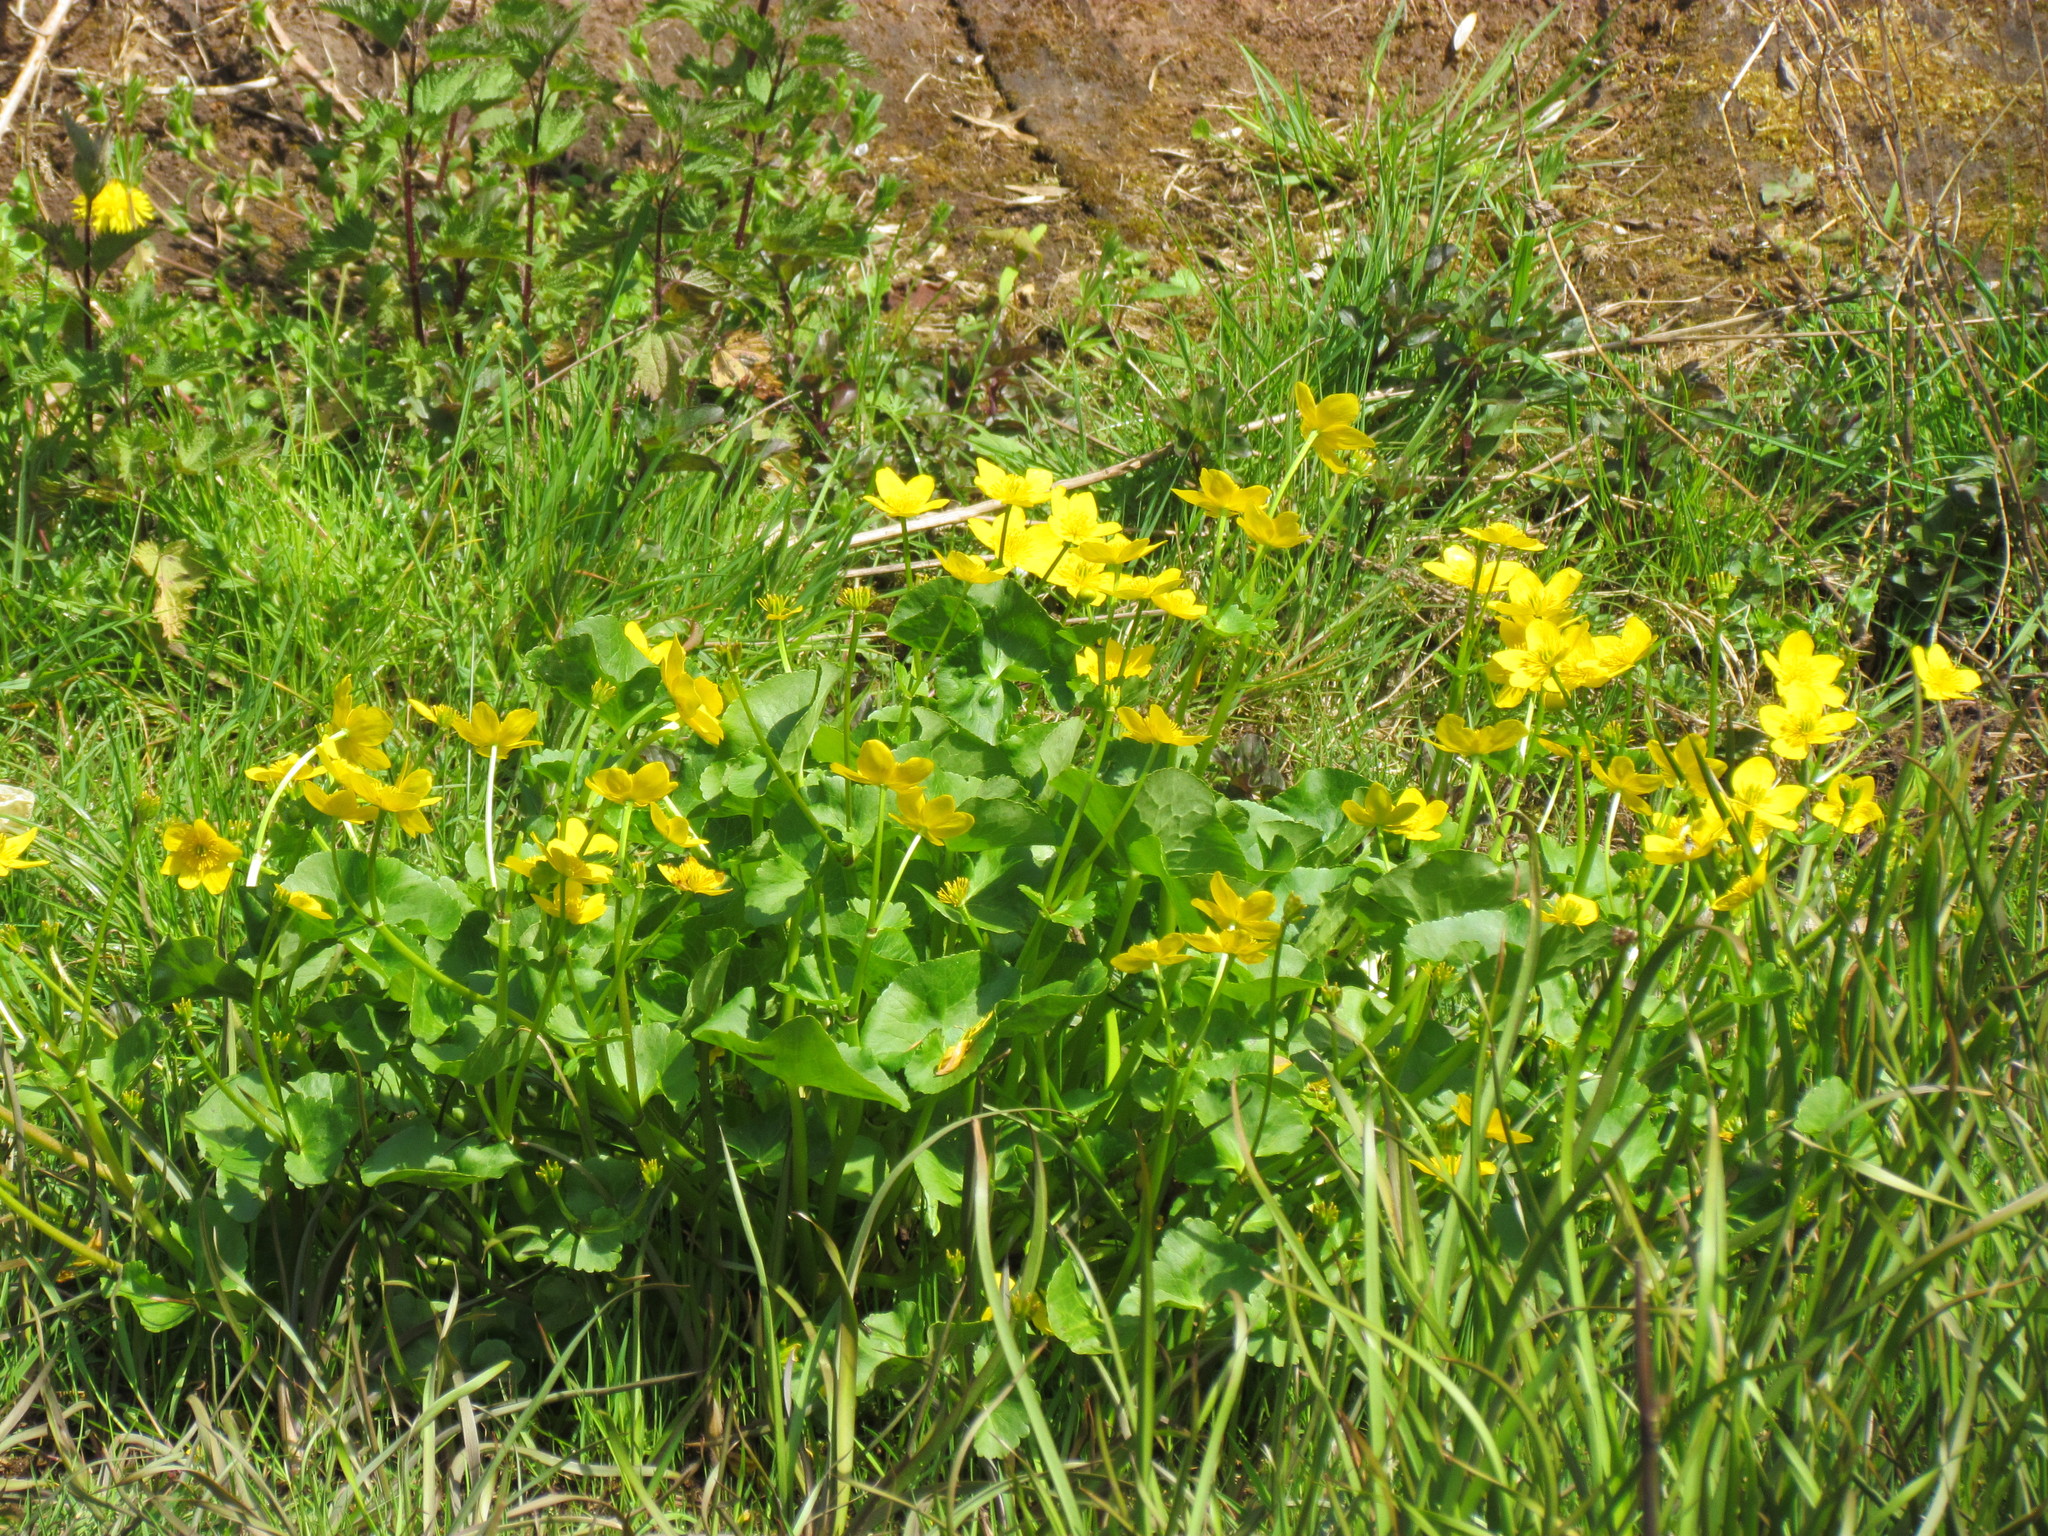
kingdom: Plantae
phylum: Tracheophyta
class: Magnoliopsida
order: Ranunculales
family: Ranunculaceae
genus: Caltha
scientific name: Caltha palustris
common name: Marsh marigold
